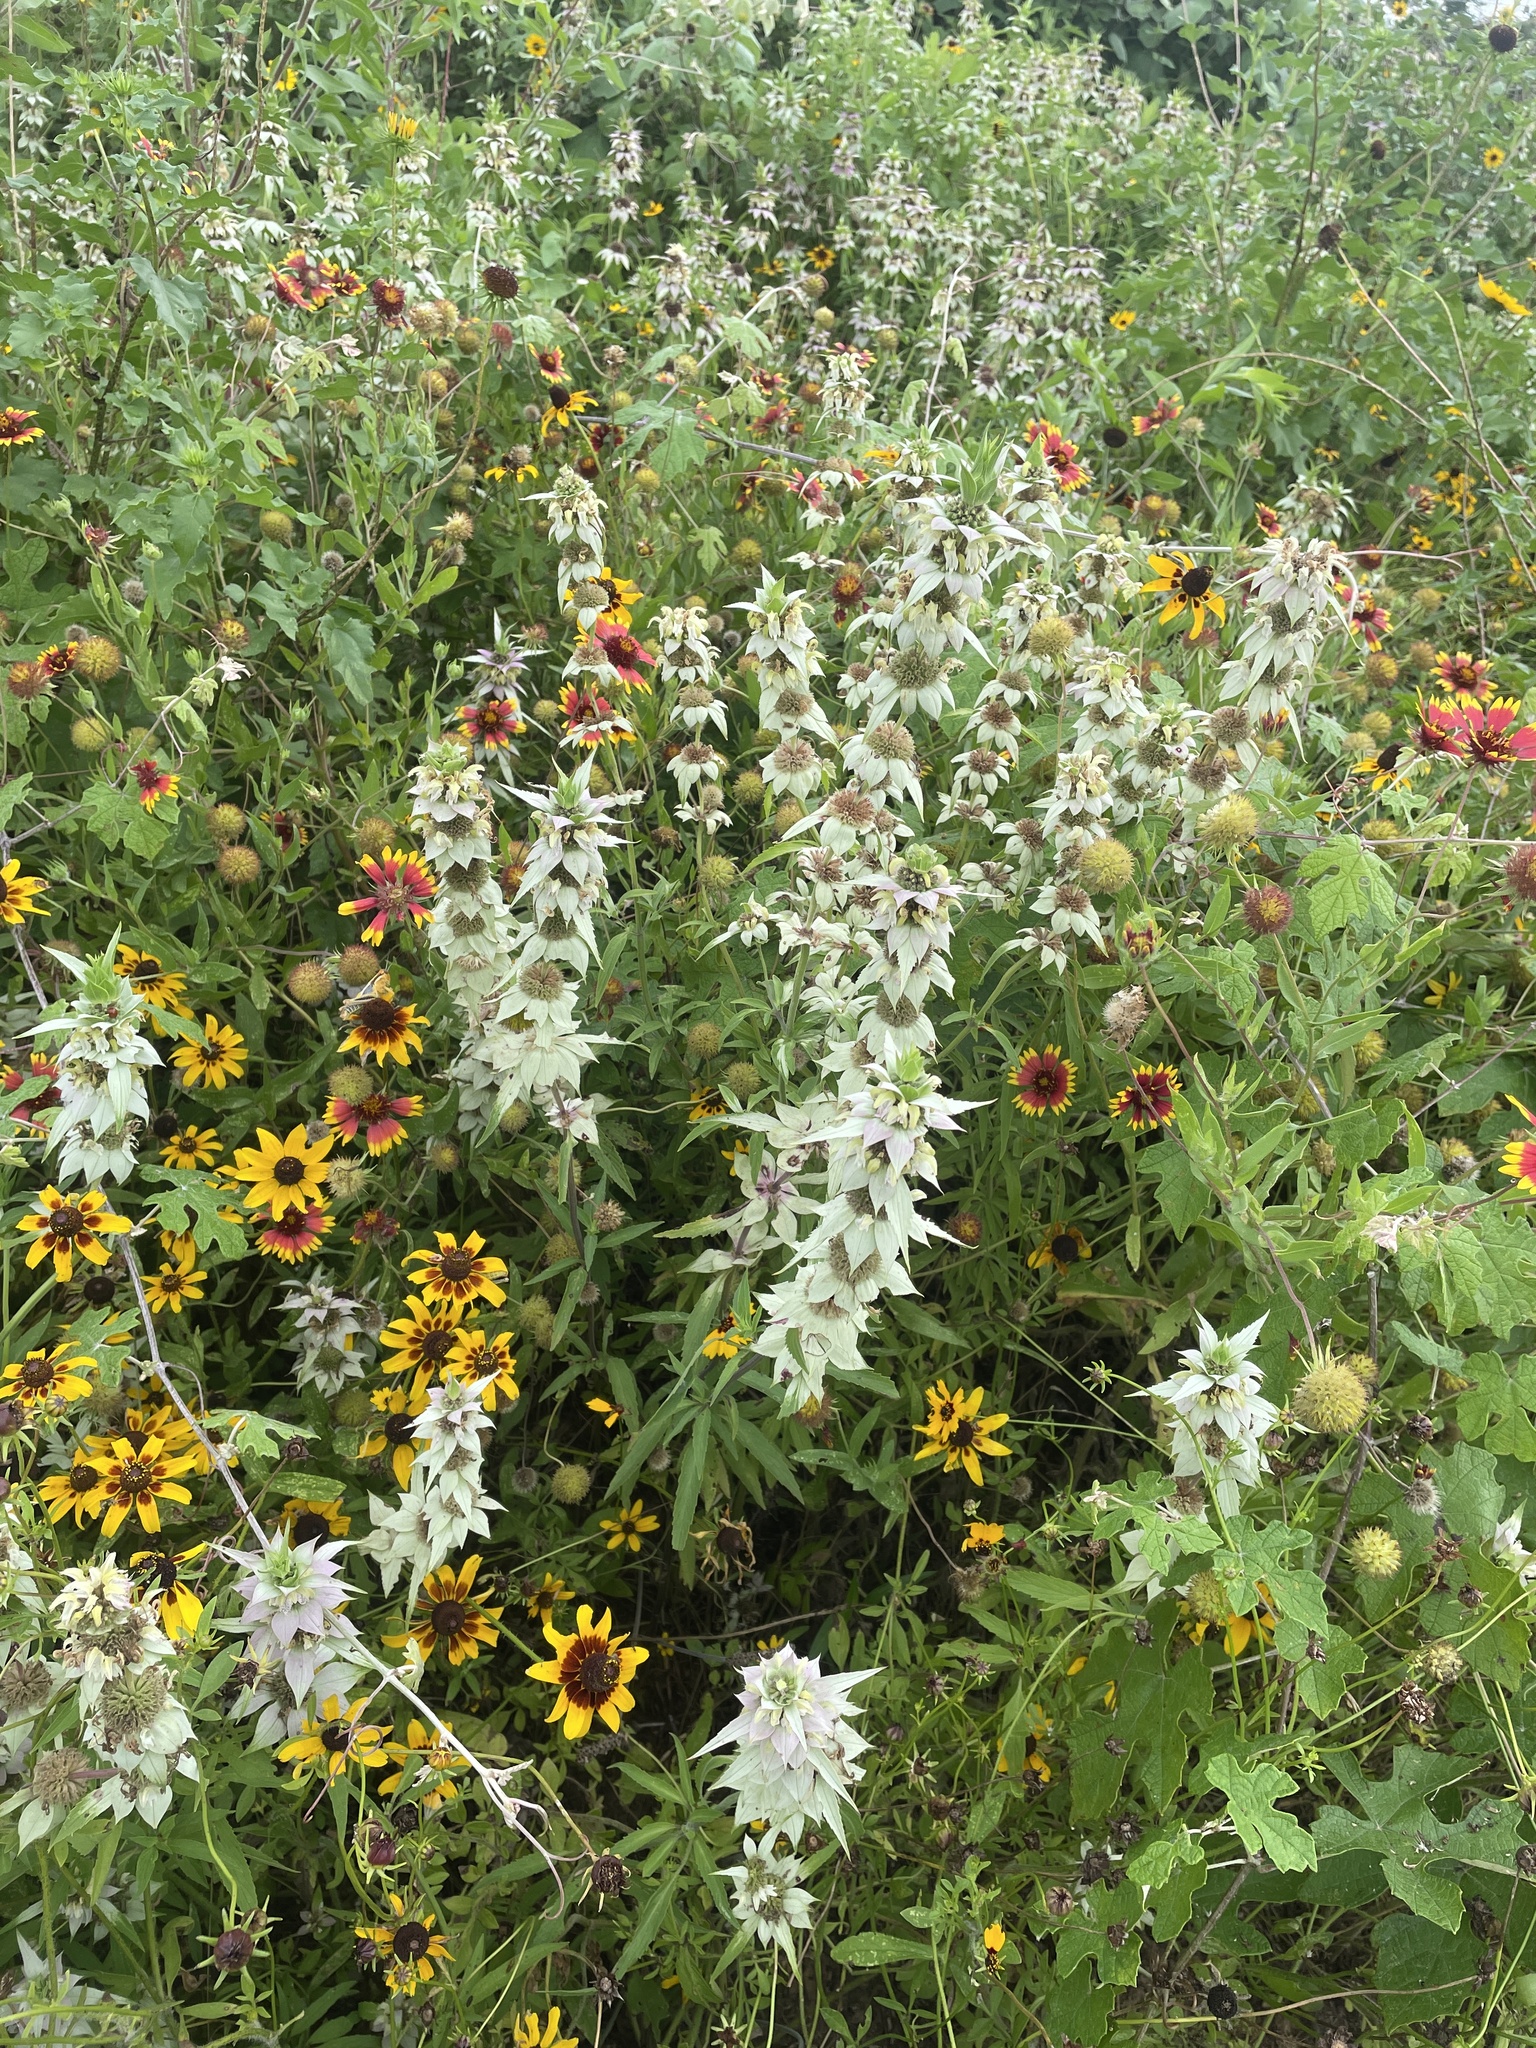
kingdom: Plantae
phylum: Tracheophyta
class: Magnoliopsida
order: Lamiales
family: Lamiaceae
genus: Monarda
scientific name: Monarda punctata
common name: Dotted monarda
